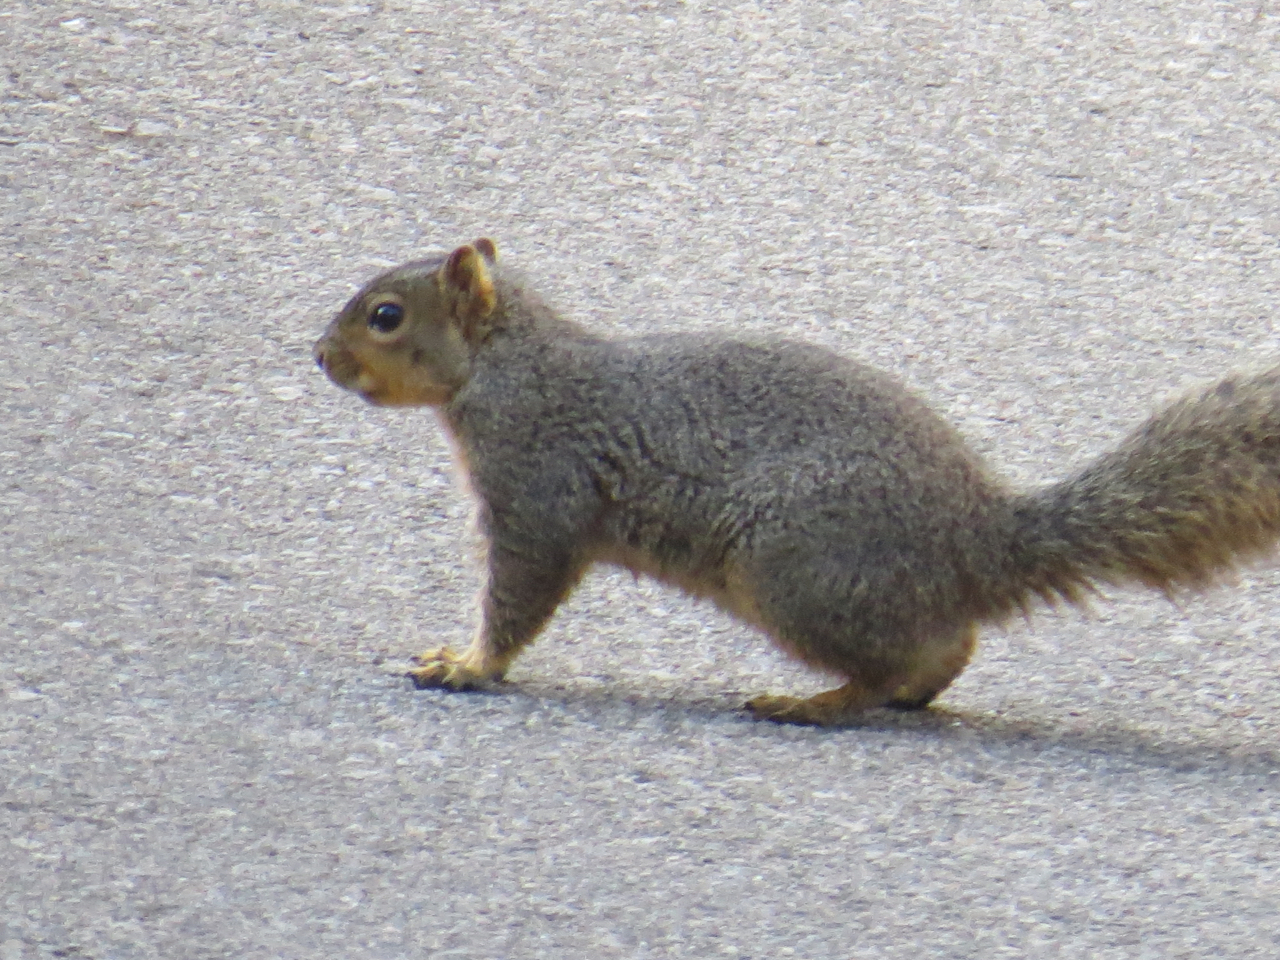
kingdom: Animalia
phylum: Chordata
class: Mammalia
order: Rodentia
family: Sciuridae
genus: Sciurus
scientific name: Sciurus niger
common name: Fox squirrel
